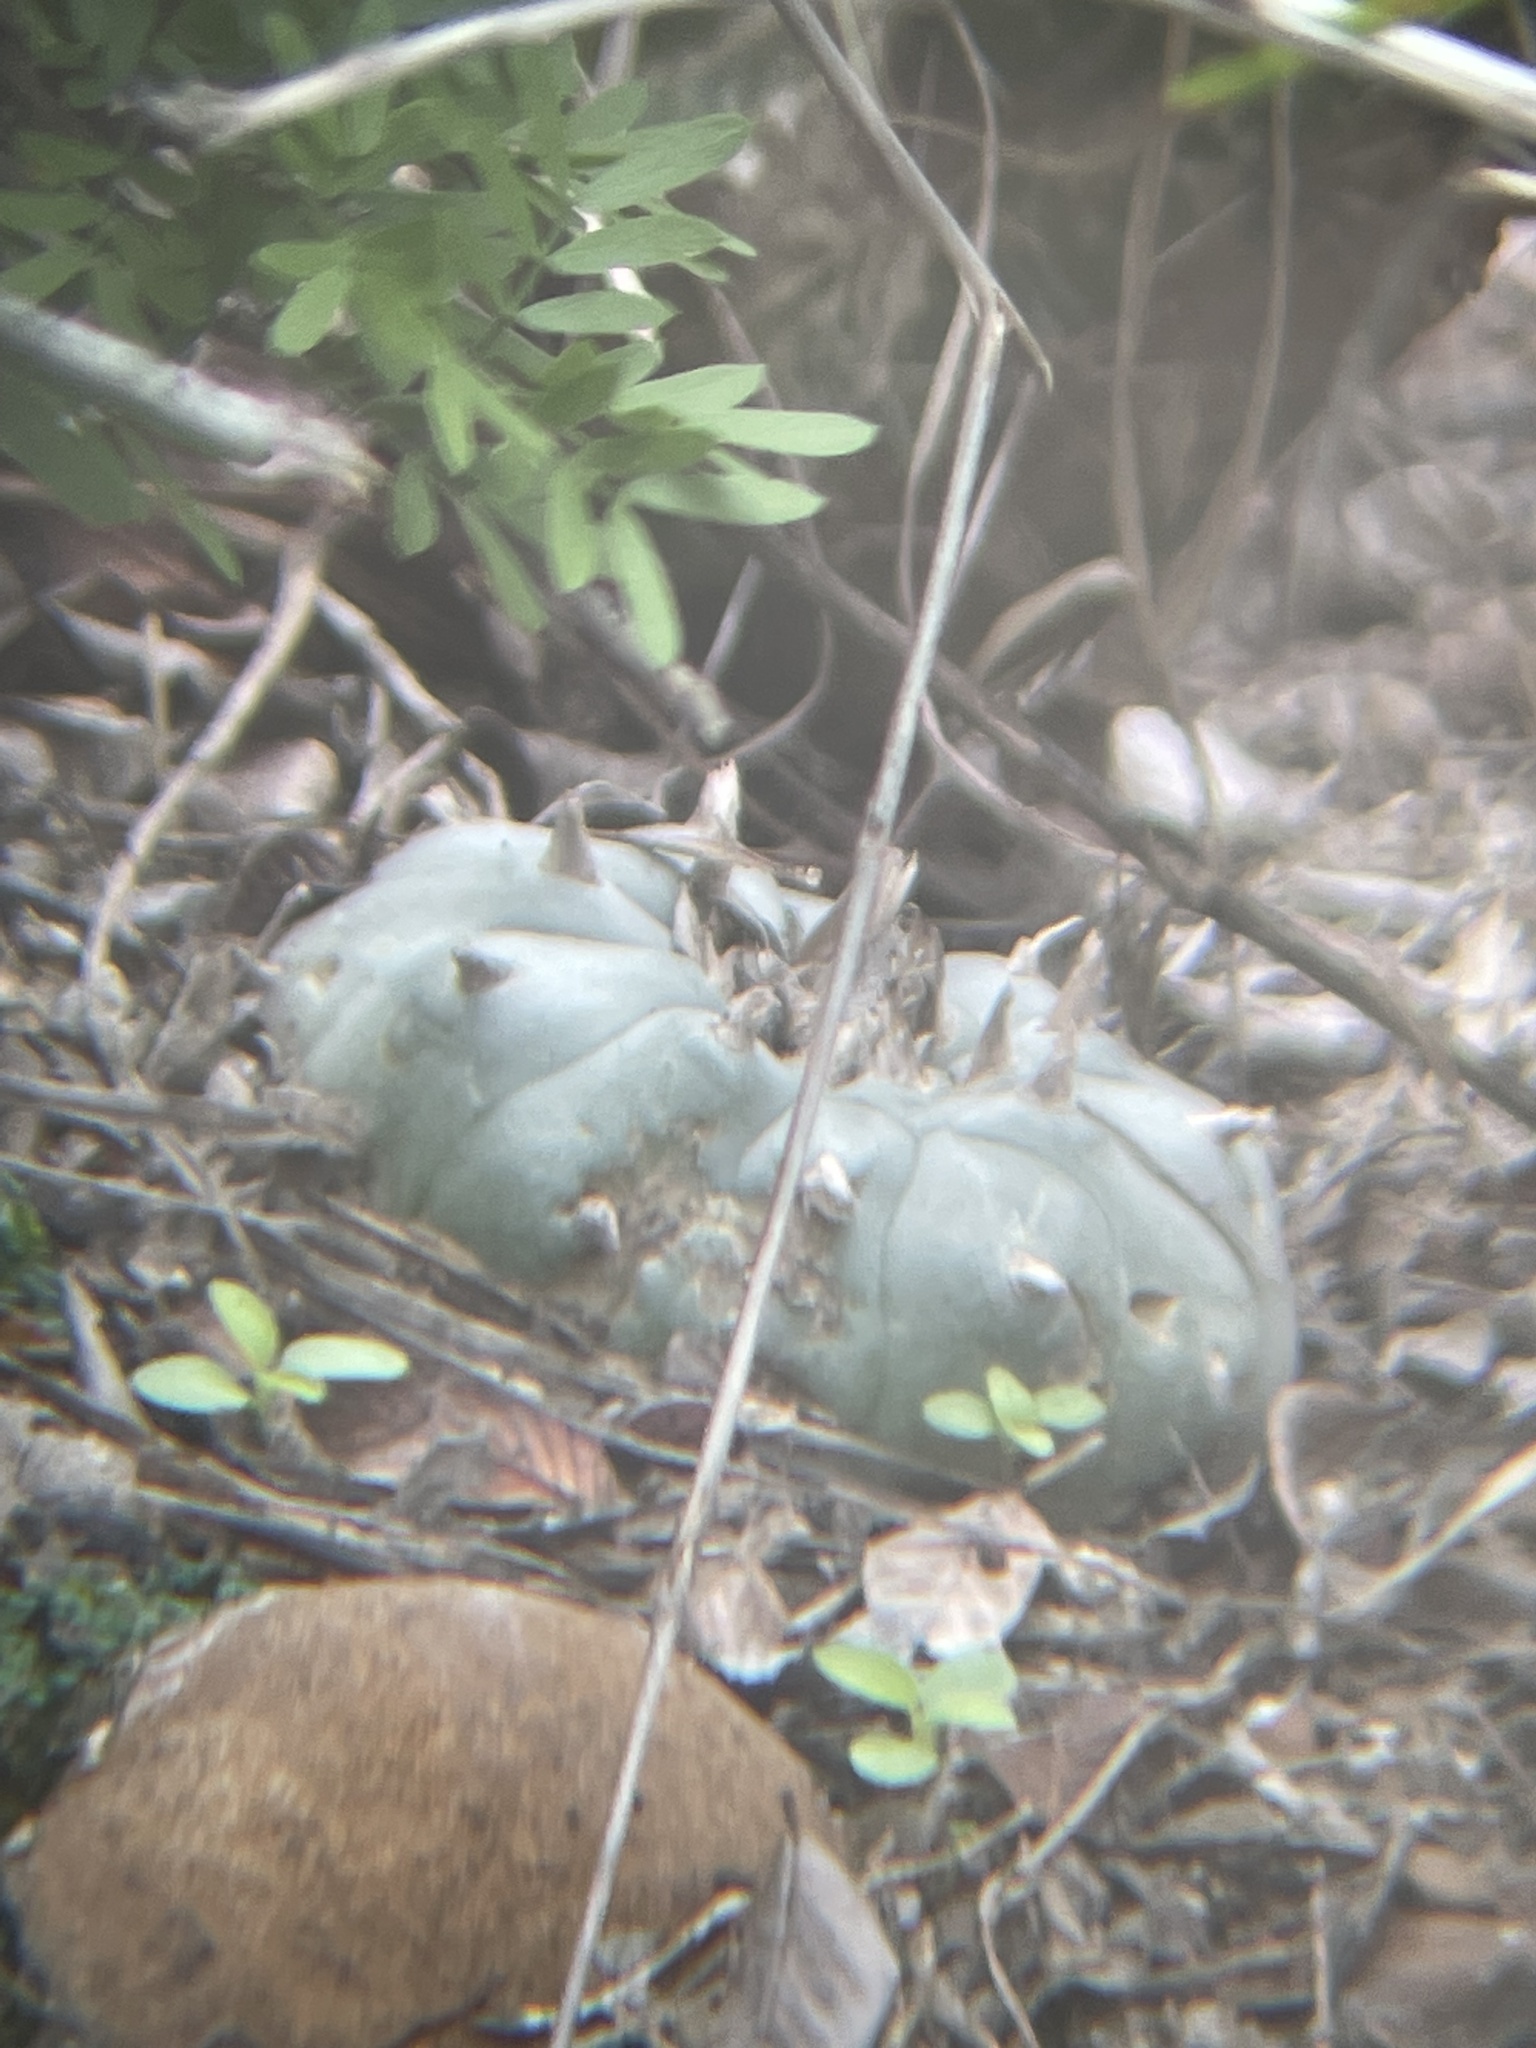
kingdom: Plantae
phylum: Tracheophyta
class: Magnoliopsida
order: Caryophyllales
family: Cactaceae
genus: Lophophora
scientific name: Lophophora williamsii
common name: Indian-dope
